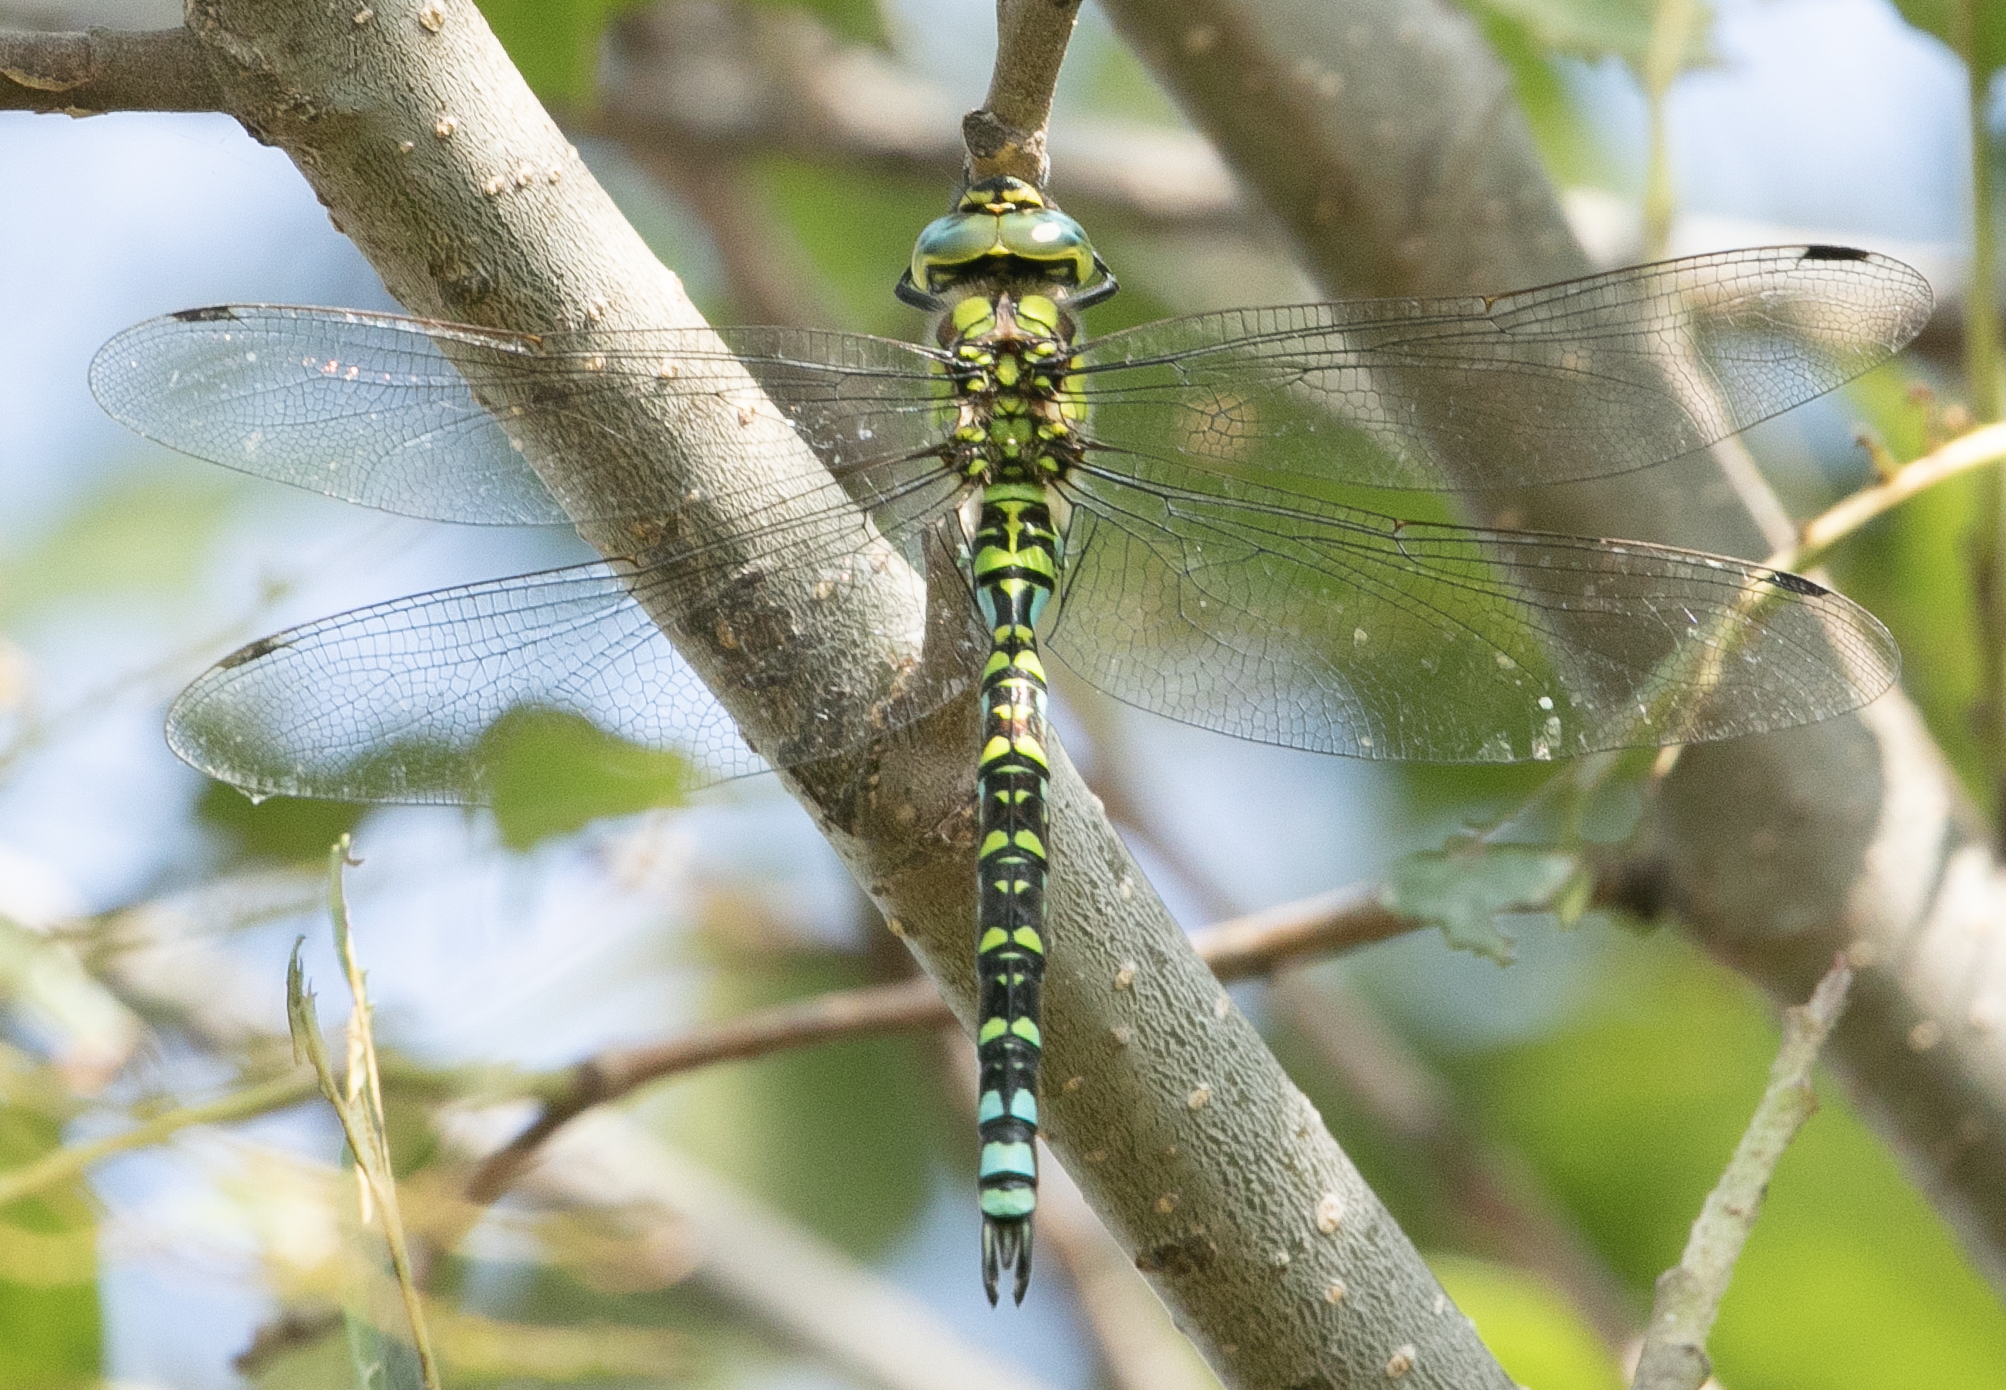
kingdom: Animalia
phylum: Arthropoda
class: Insecta
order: Odonata
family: Aeshnidae
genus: Aeshna
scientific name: Aeshna cyanea
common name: Southern hawker
